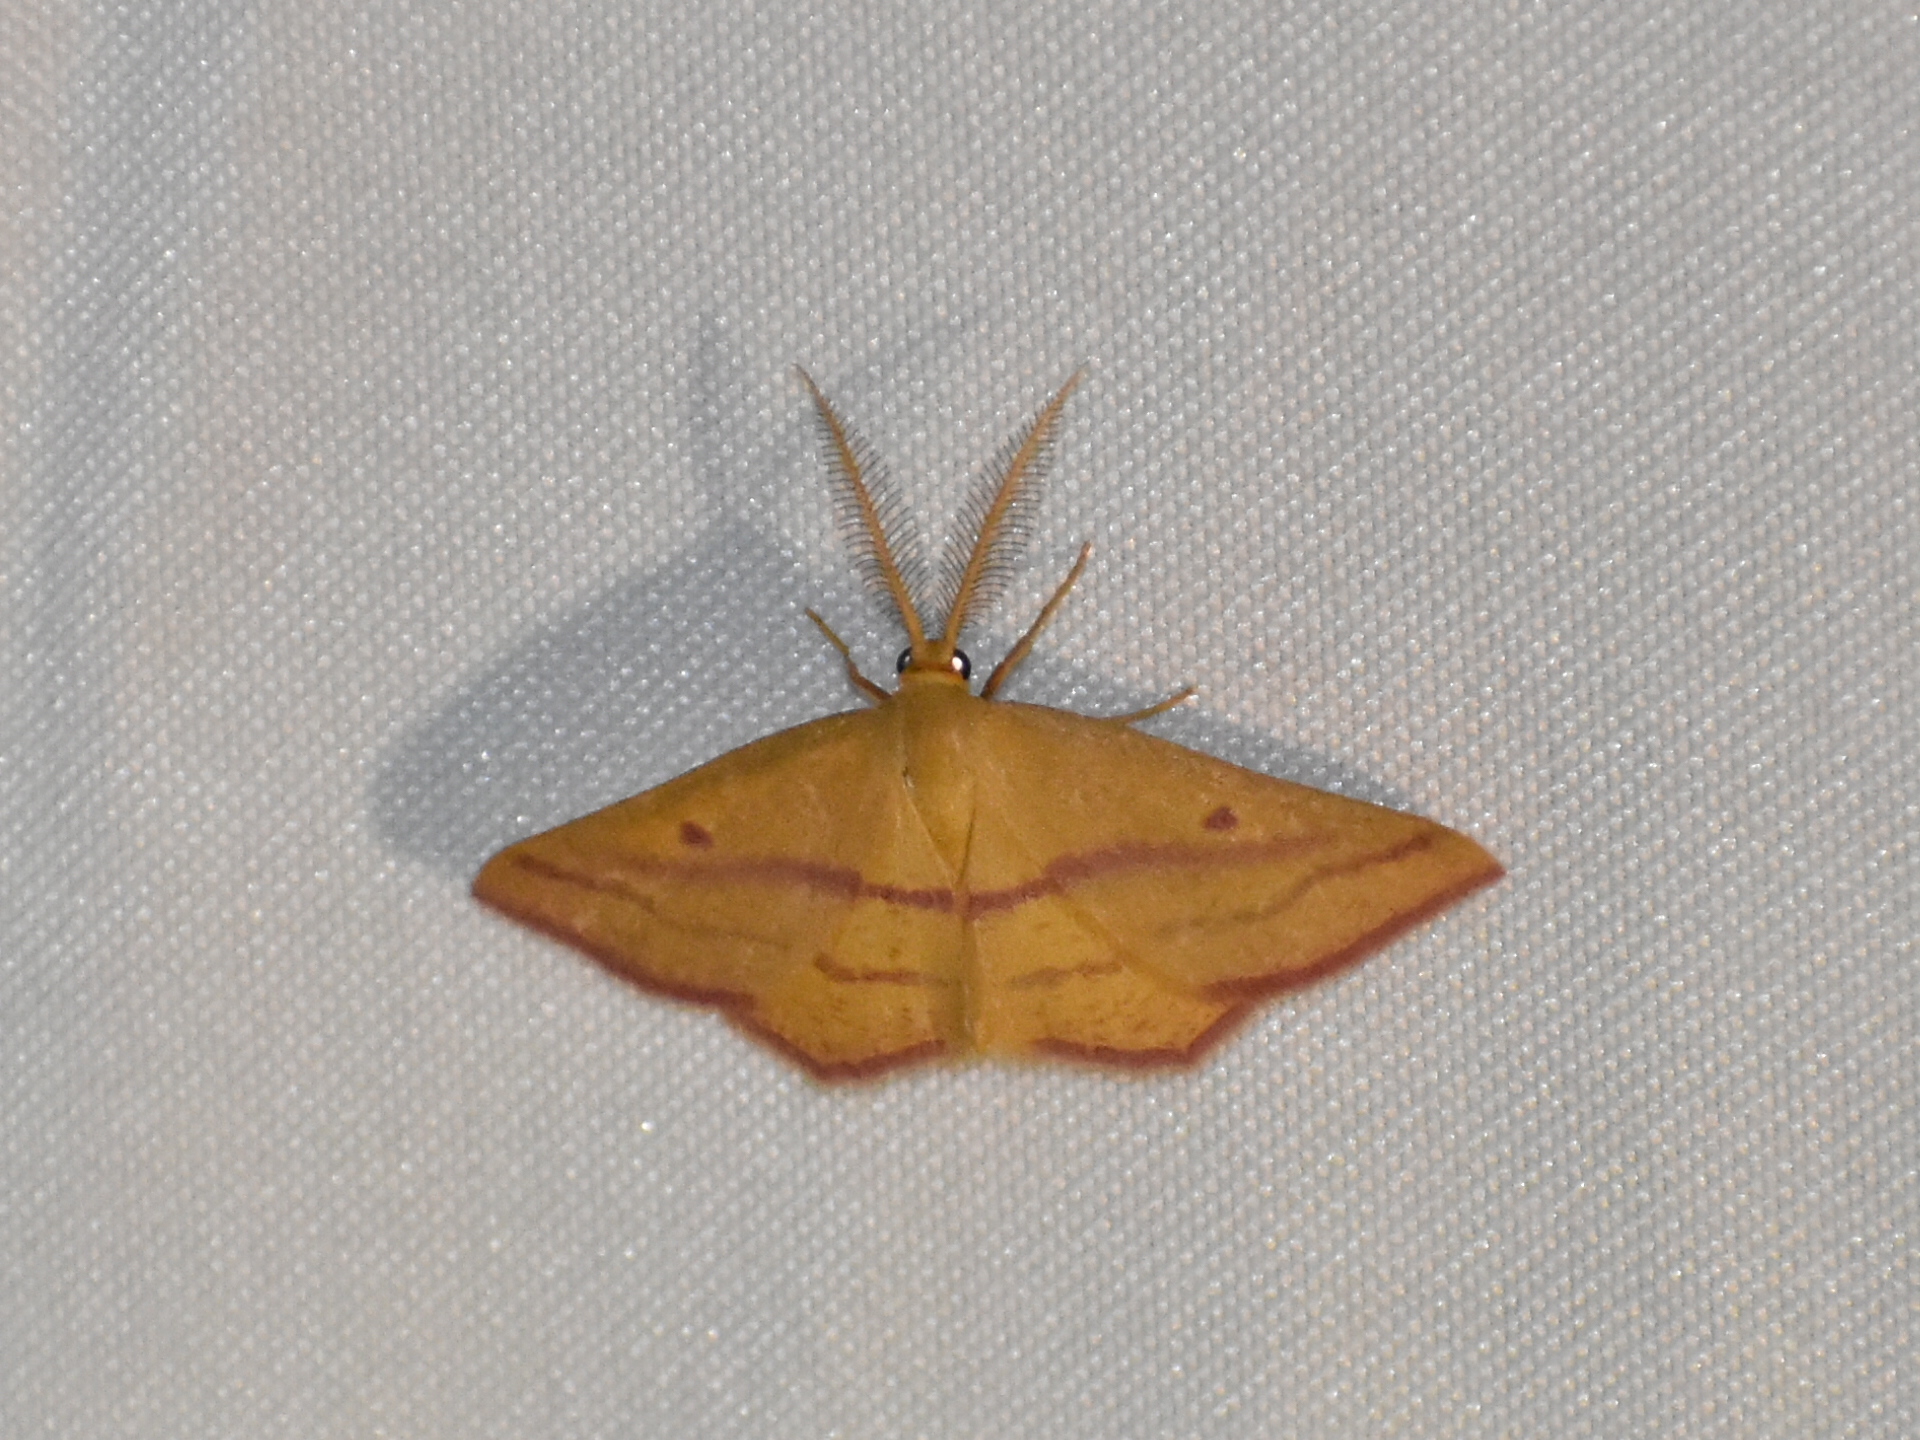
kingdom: Animalia
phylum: Arthropoda
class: Insecta
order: Lepidoptera
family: Geometridae
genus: Haematopis
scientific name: Haematopis grataria
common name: Chickweed geometer
